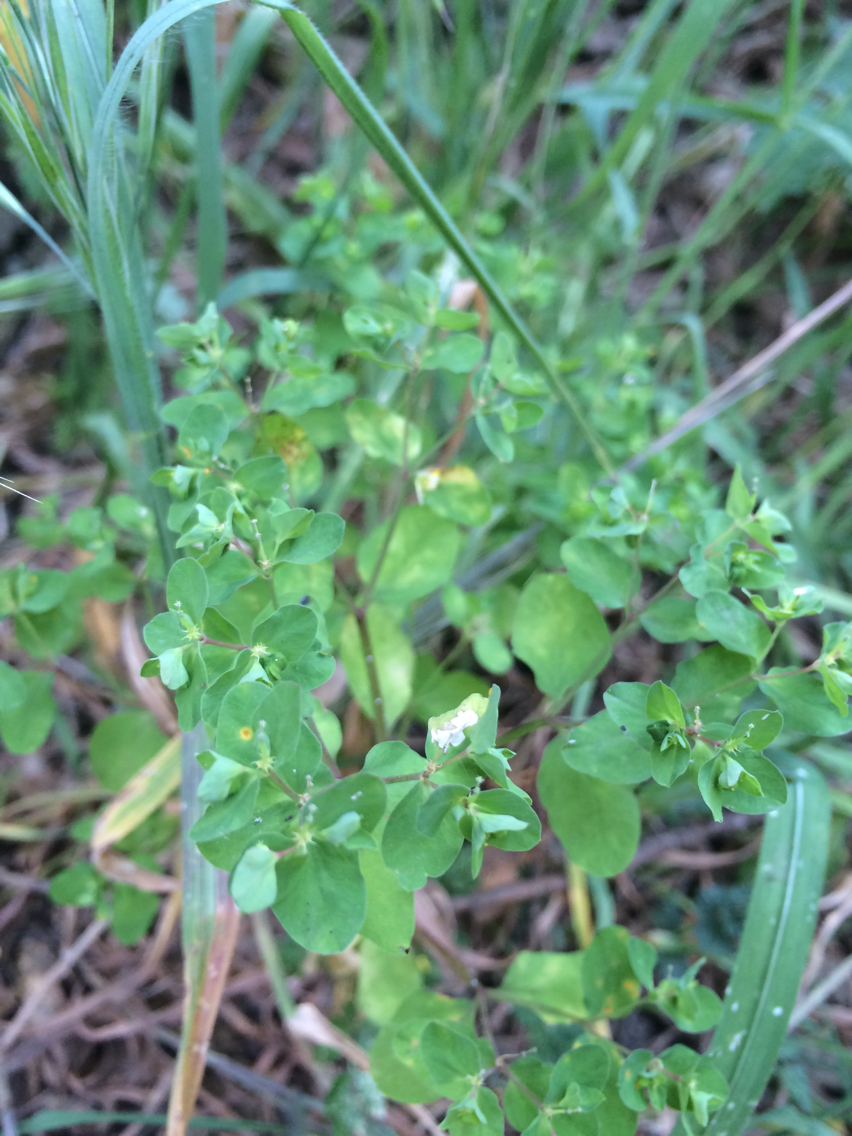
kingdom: Plantae
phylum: Tracheophyta
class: Magnoliopsida
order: Malpighiales
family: Euphorbiaceae
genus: Euphorbia
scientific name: Euphorbia peplus
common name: Petty spurge
